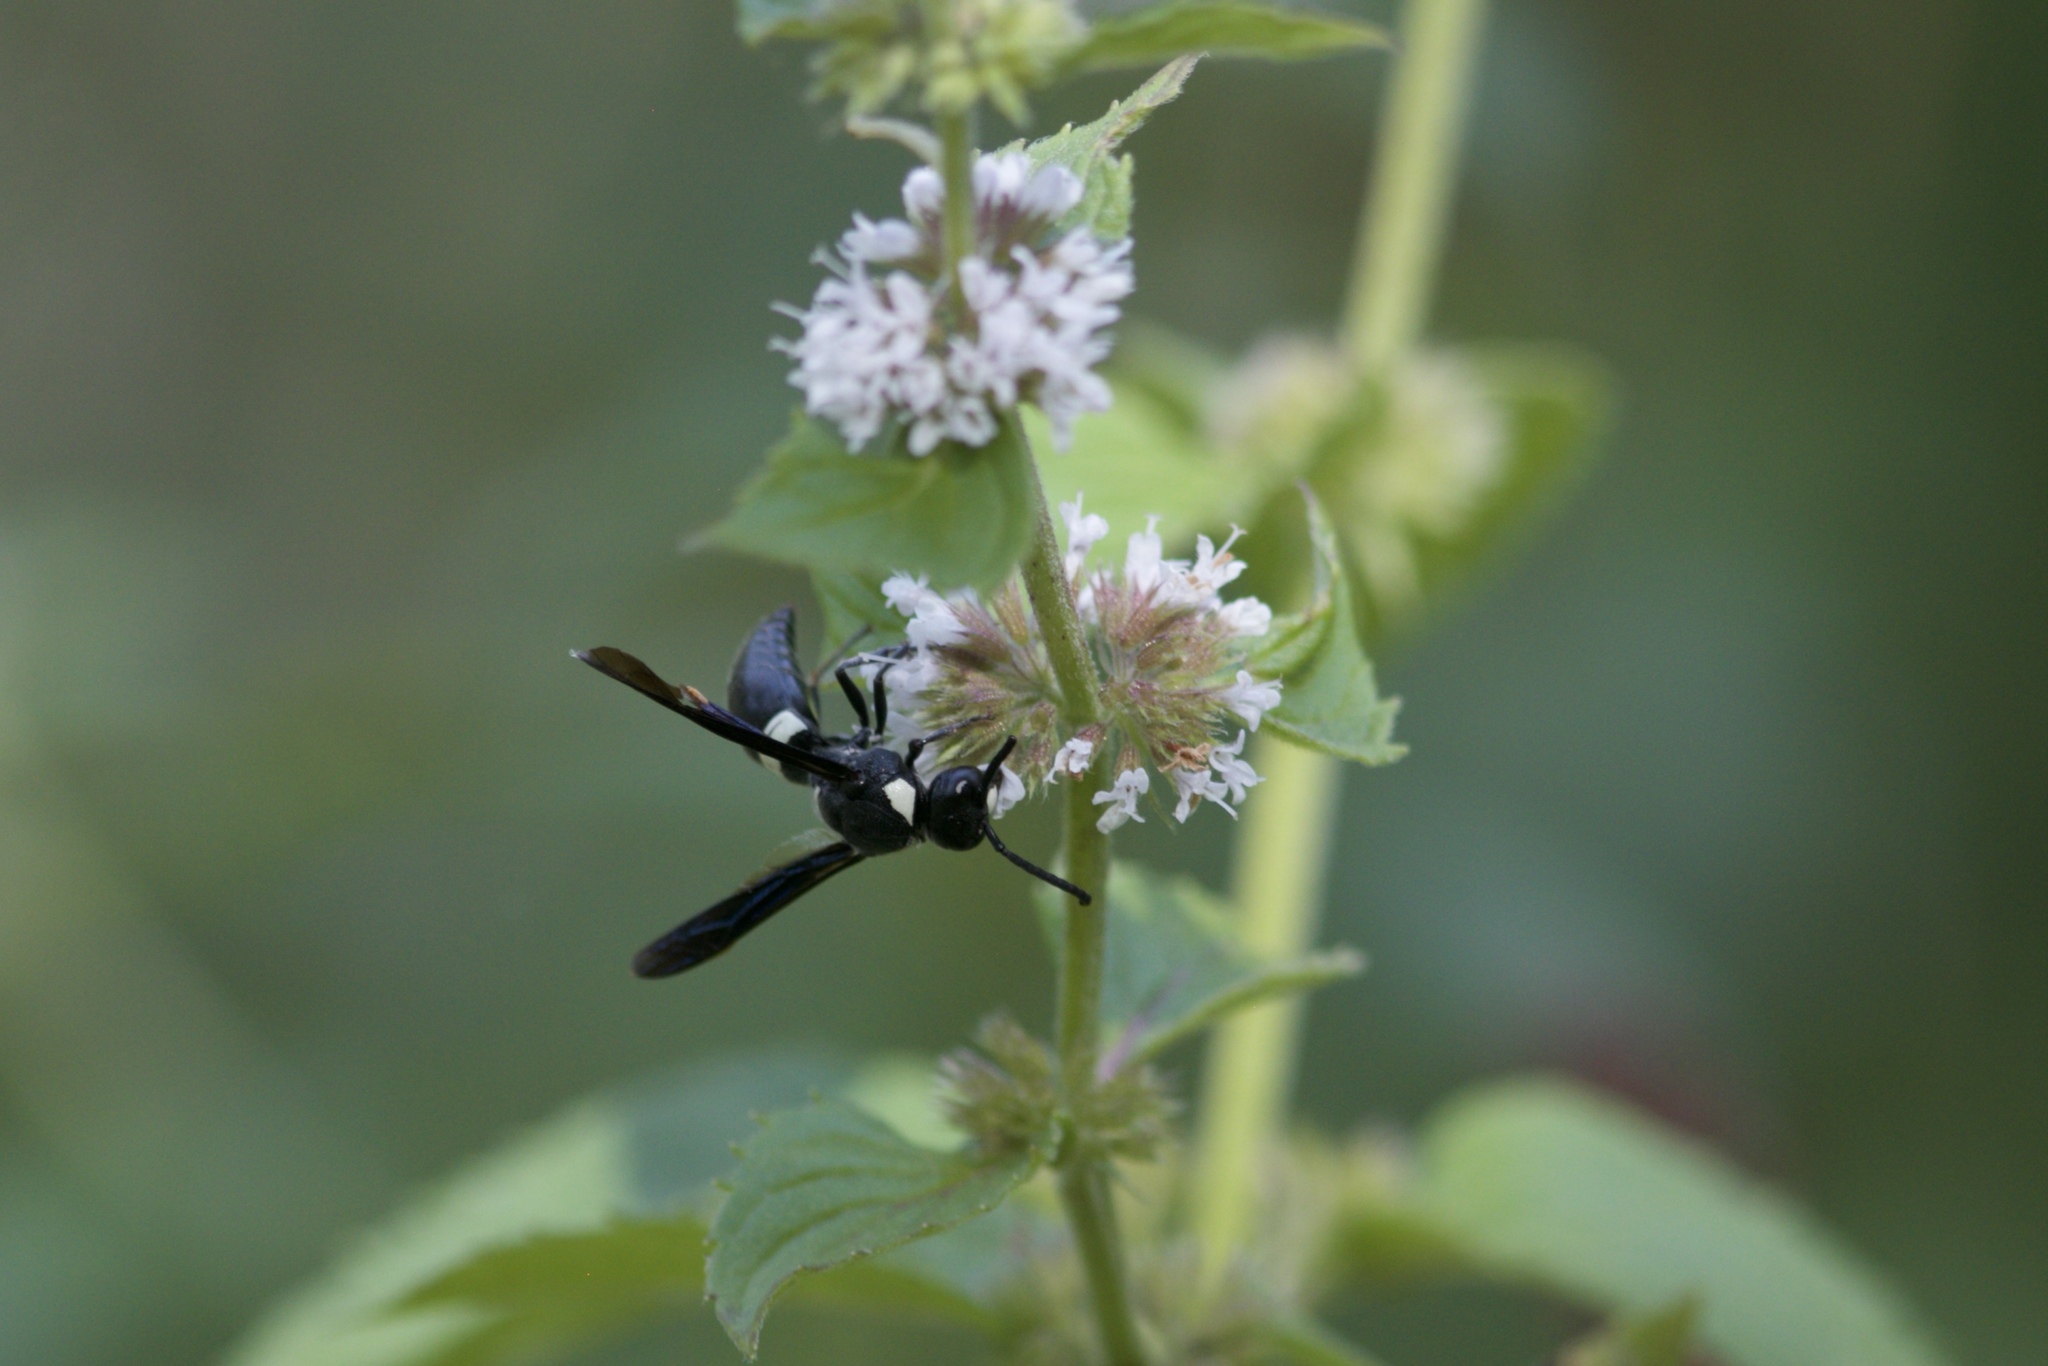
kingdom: Animalia
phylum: Arthropoda
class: Insecta
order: Hymenoptera
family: Eumenidae
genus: Monobia
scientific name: Monobia quadridens
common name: Four-toothed mason wasp
